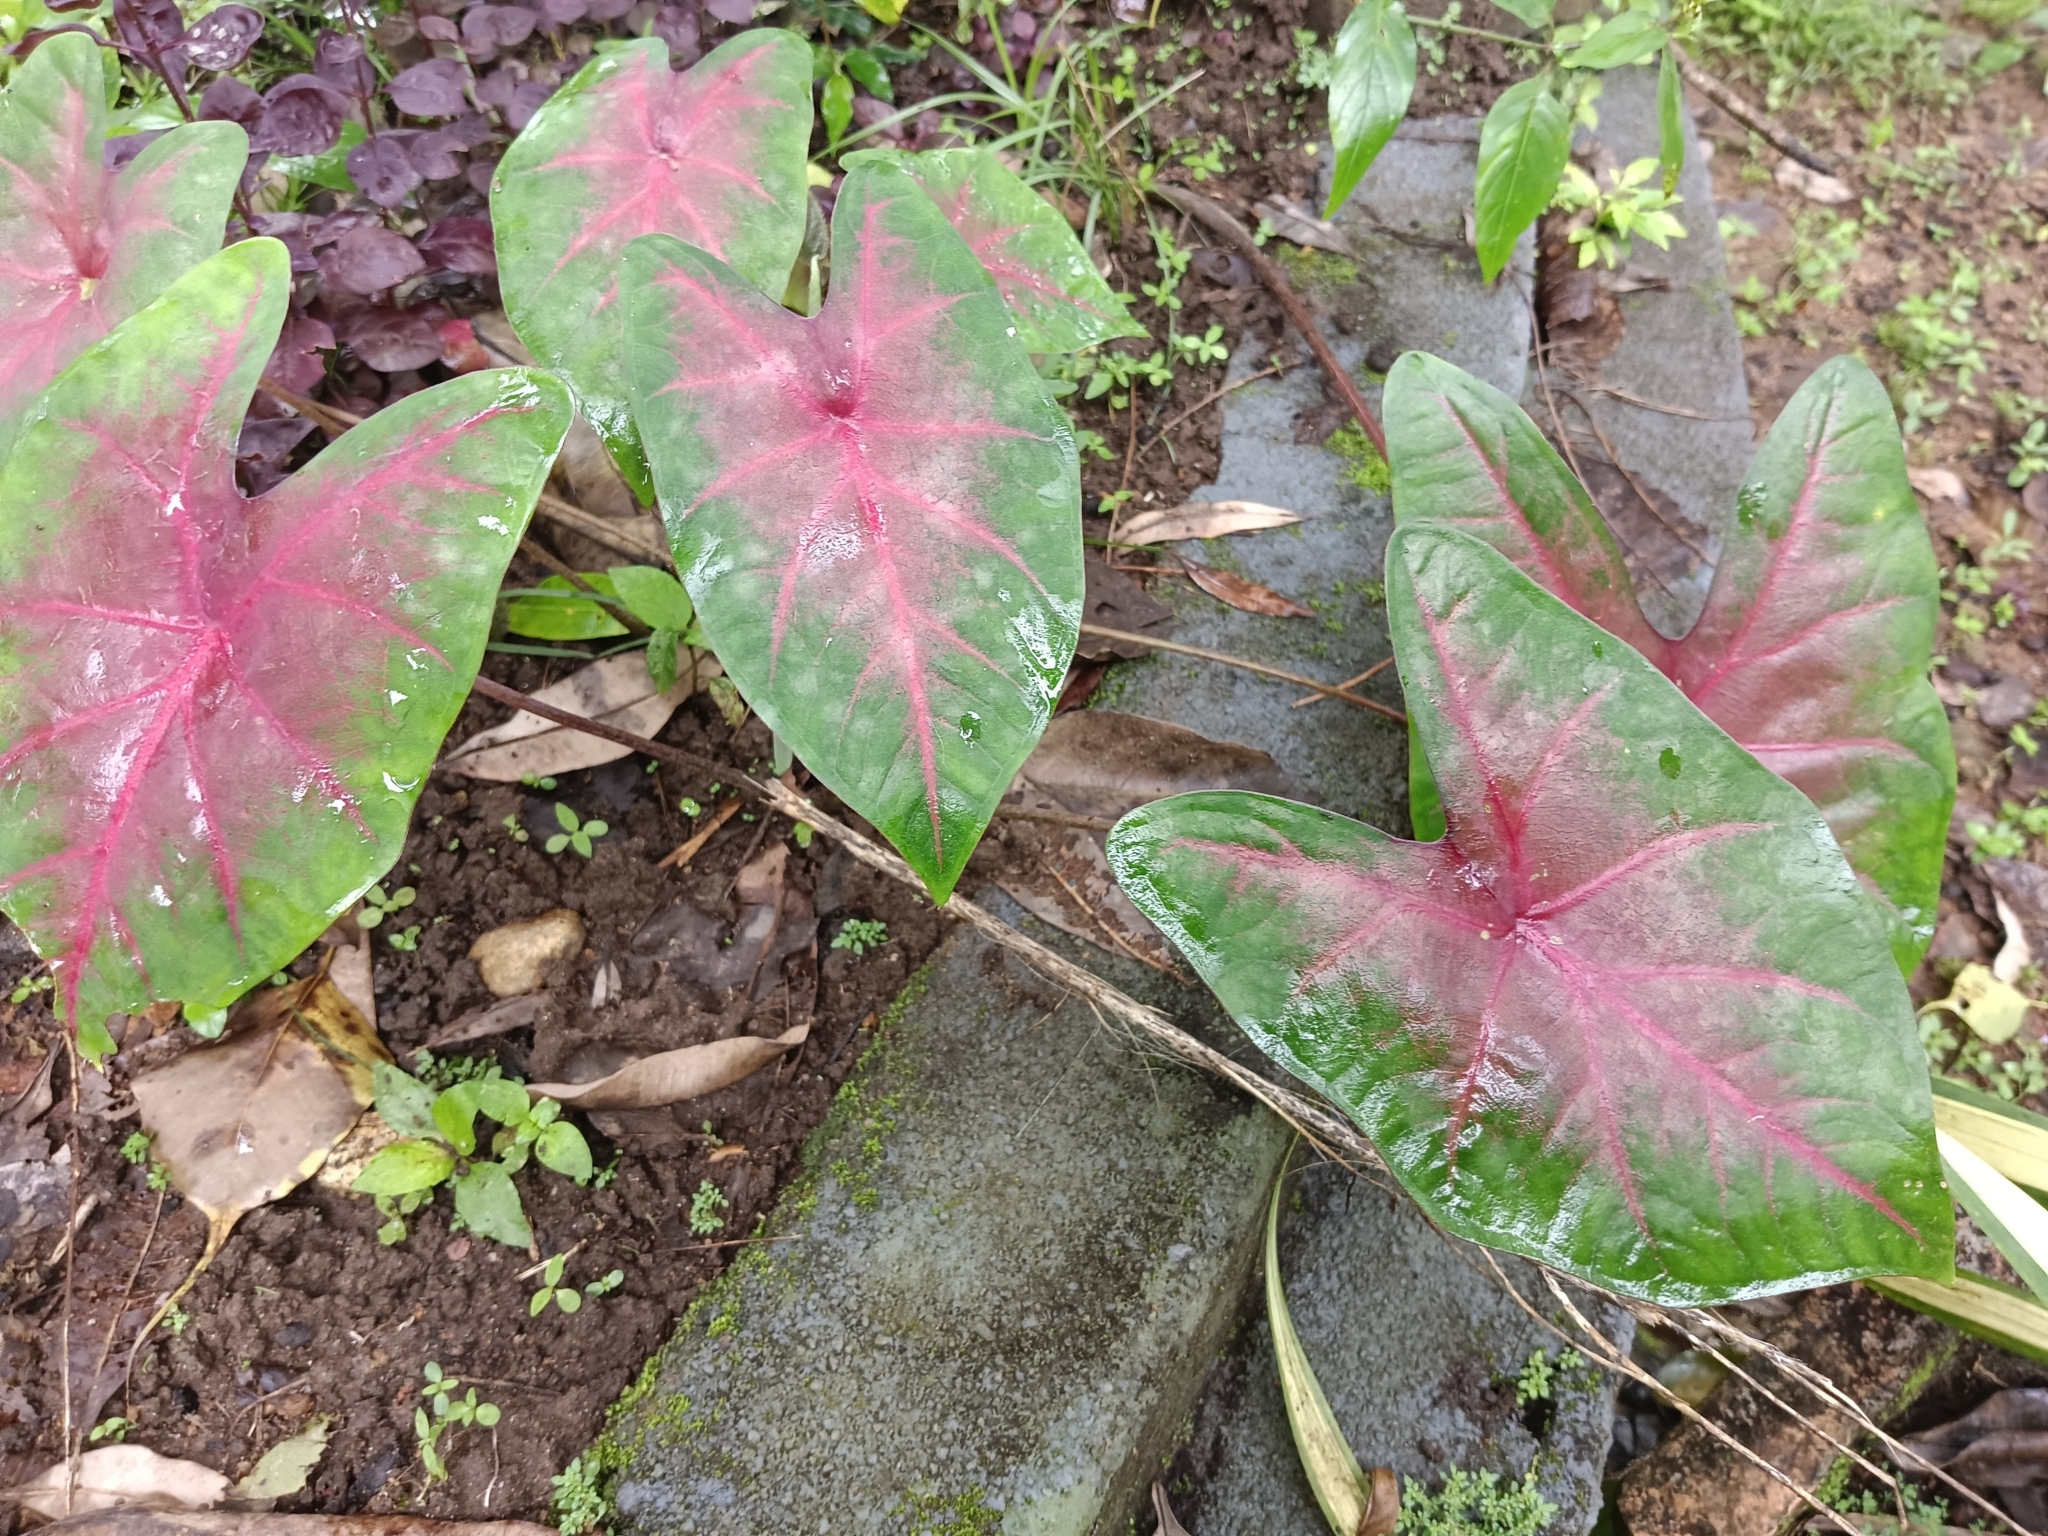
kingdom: Plantae
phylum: Tracheophyta
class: Liliopsida
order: Alismatales
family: Araceae
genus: Caladium
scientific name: Caladium bicolor
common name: Artist's pallet
